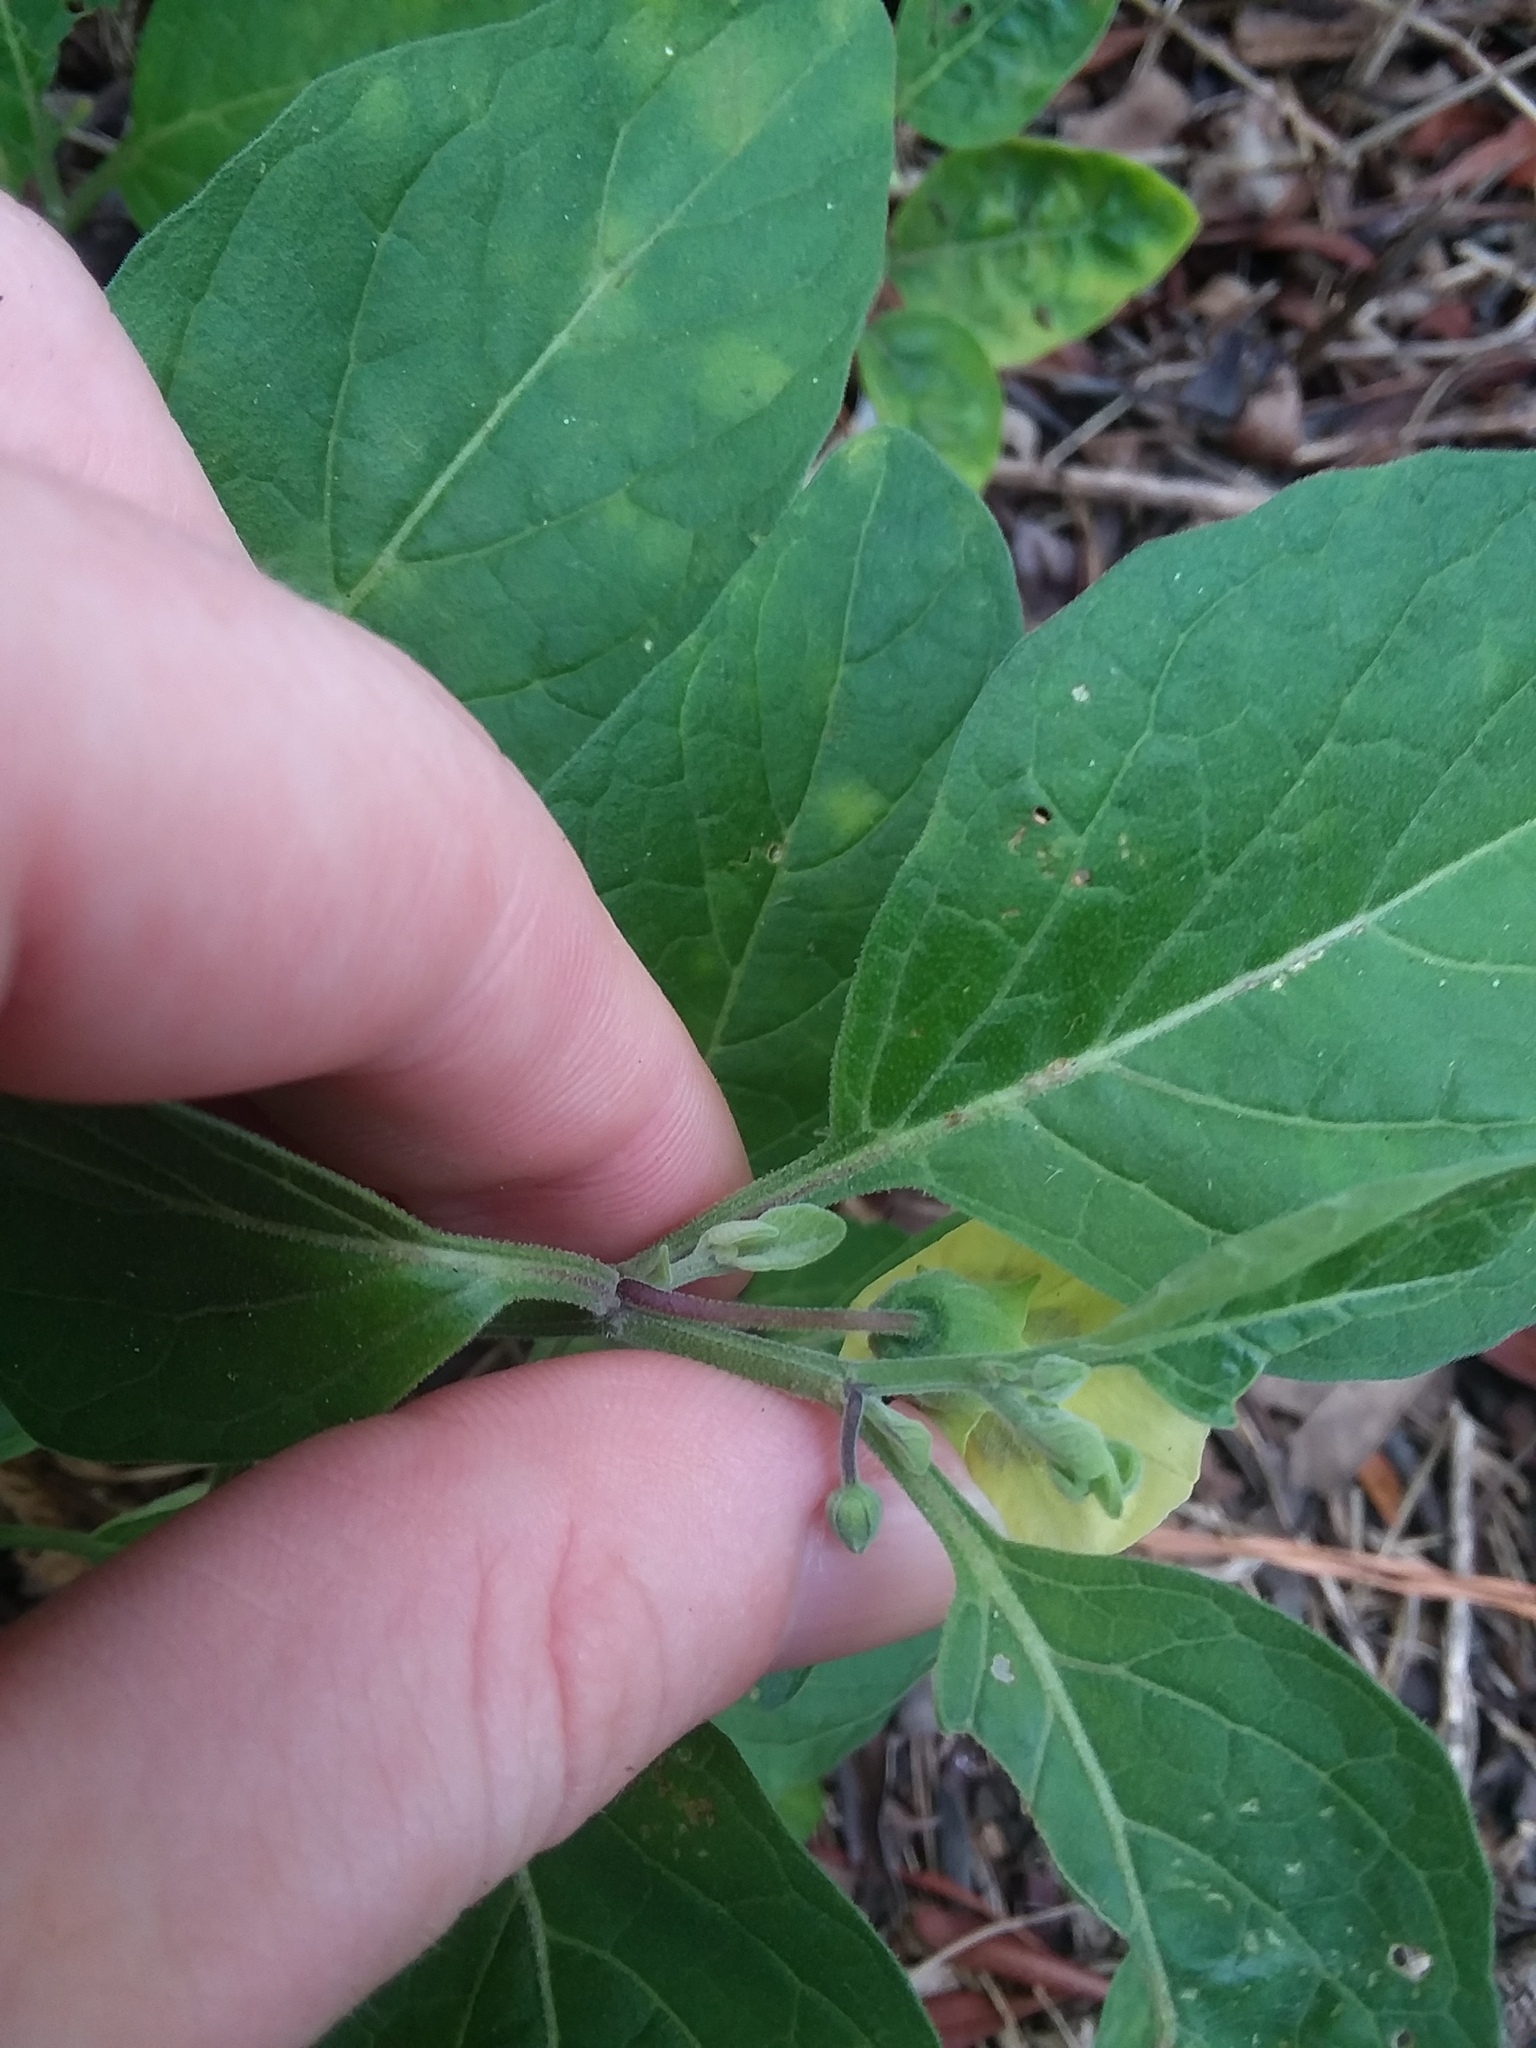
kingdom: Plantae
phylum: Tracheophyta
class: Magnoliopsida
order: Solanales
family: Solanaceae
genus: Physalis
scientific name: Physalis walteri
